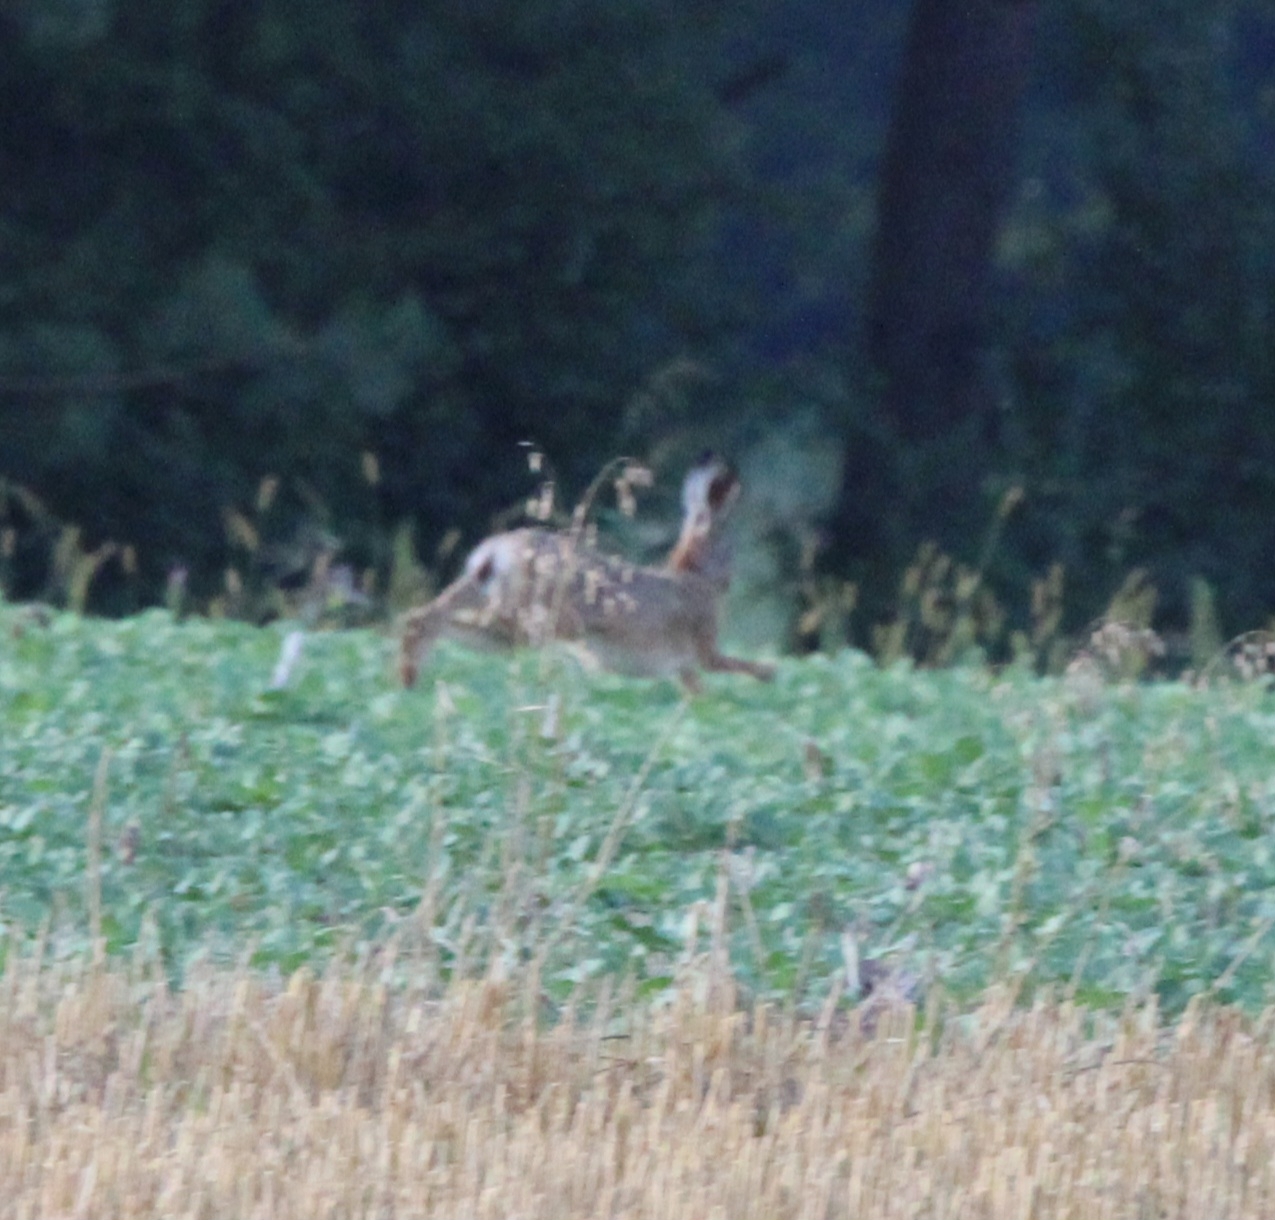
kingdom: Animalia
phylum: Chordata
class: Mammalia
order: Lagomorpha
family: Leporidae
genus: Lepus
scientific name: Lepus europaeus
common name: European hare
